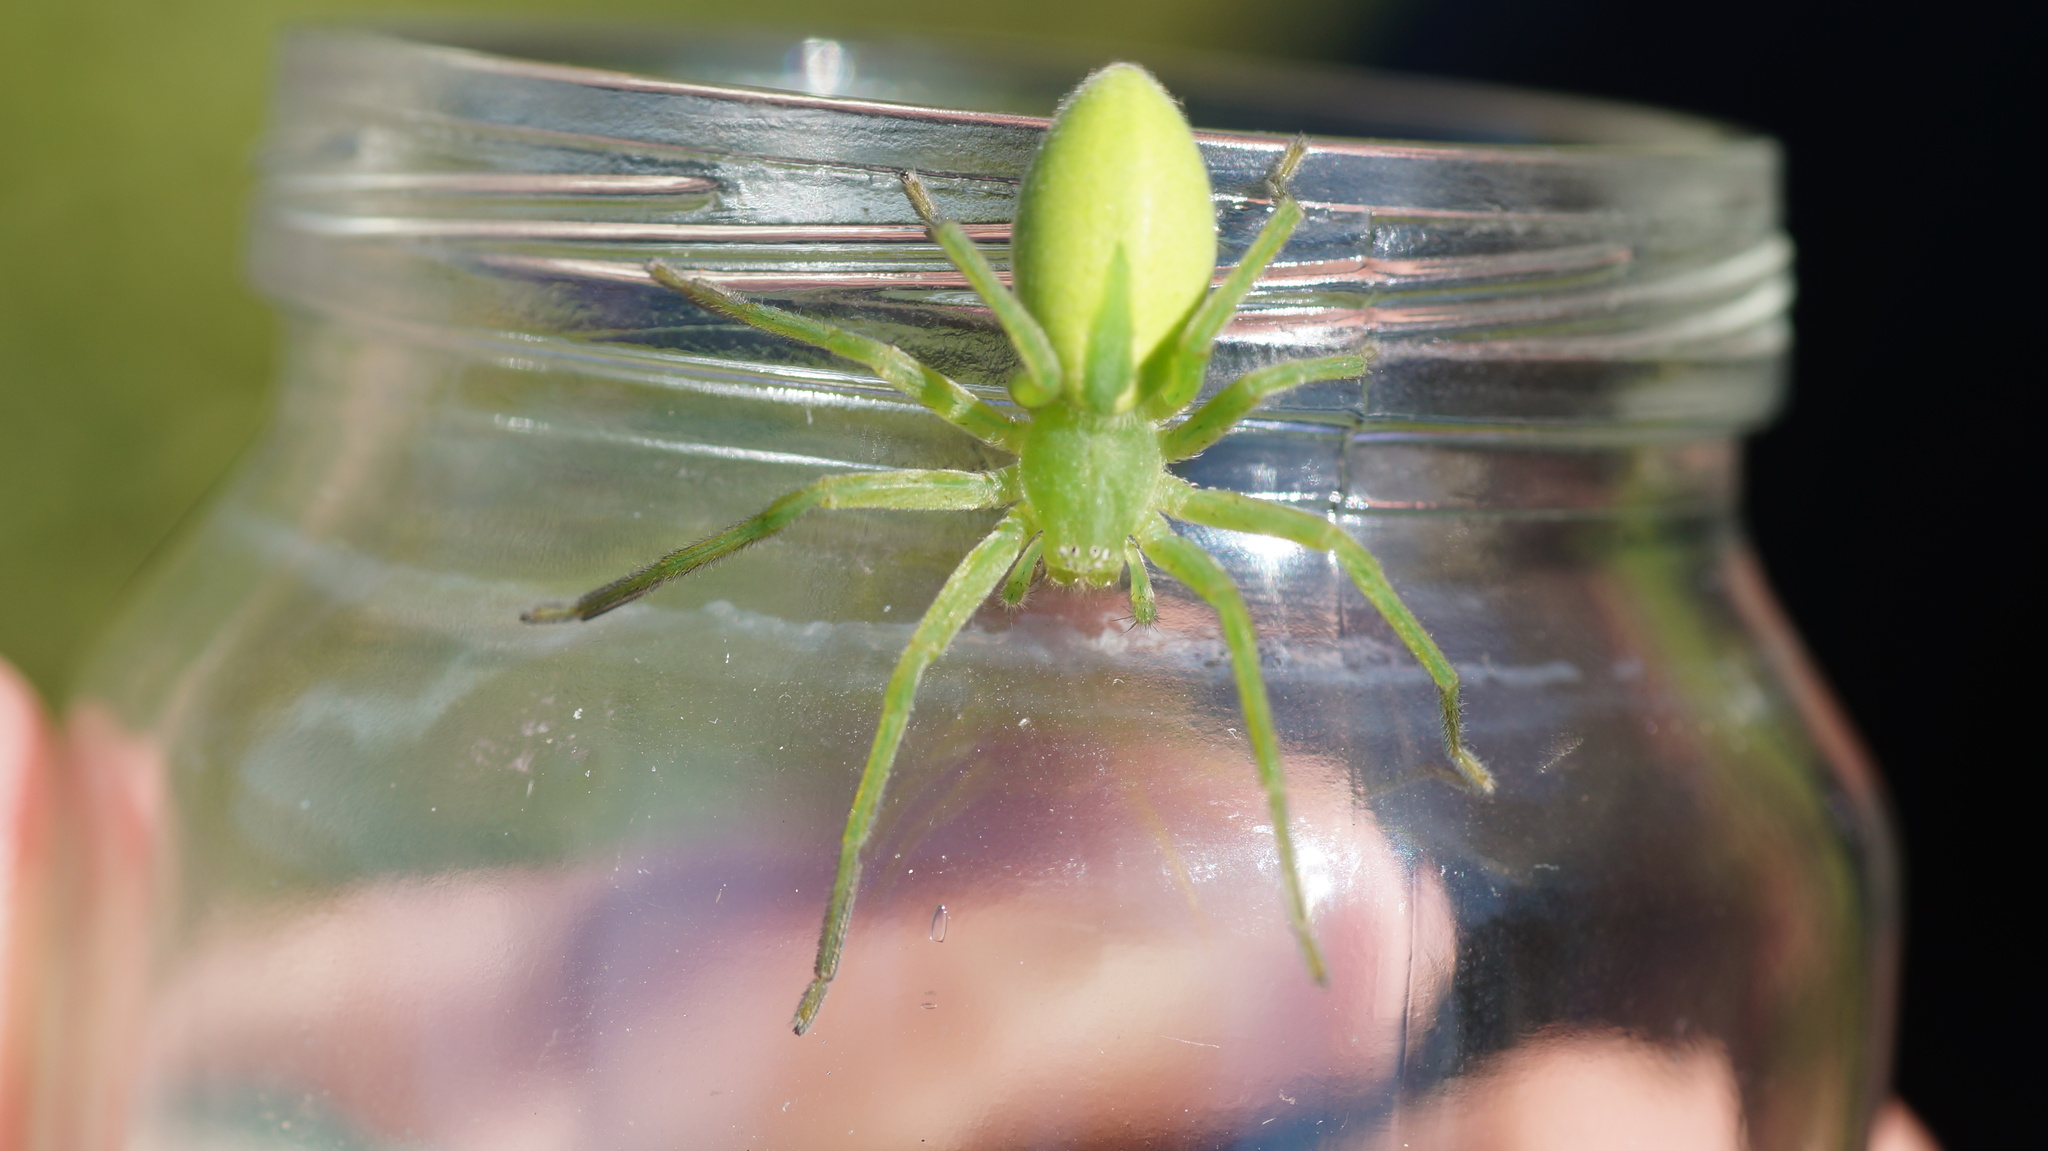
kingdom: Animalia
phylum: Arthropoda
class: Arachnida
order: Araneae
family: Sparassidae
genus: Micrommata
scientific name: Micrommata virescens
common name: Green spider
